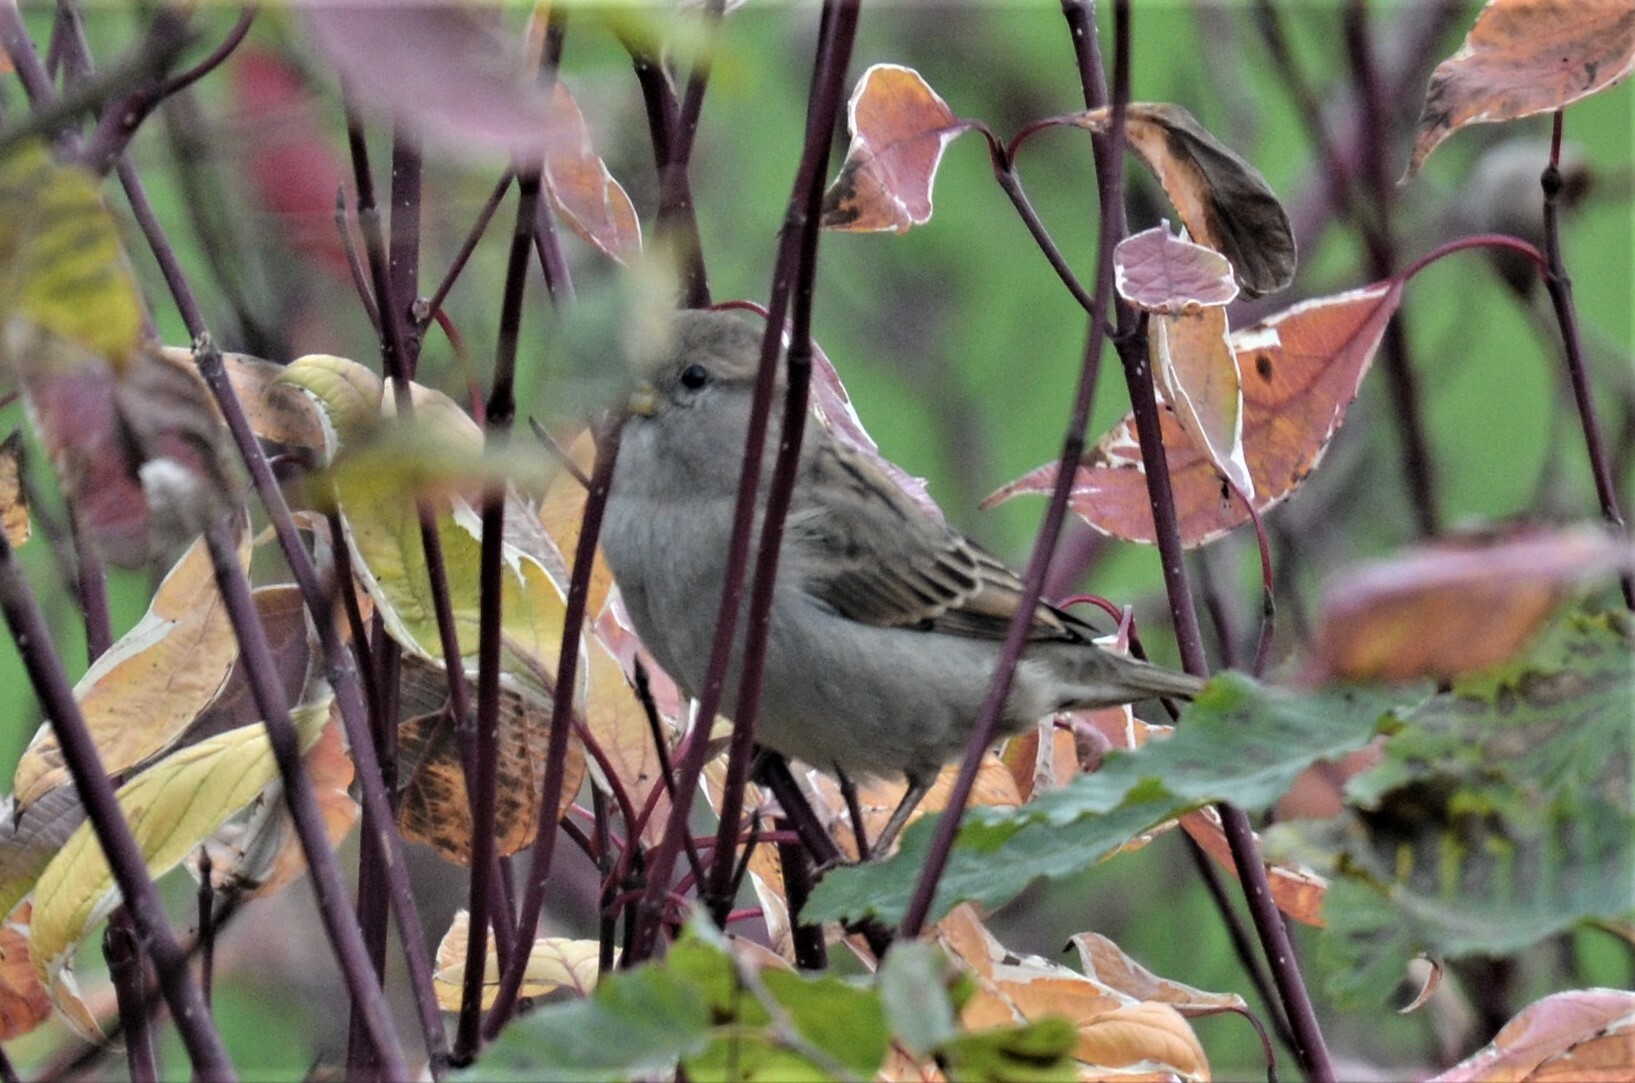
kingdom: Animalia
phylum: Chordata
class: Aves
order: Passeriformes
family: Passeridae
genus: Passer
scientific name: Passer domesticus
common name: House sparrow
